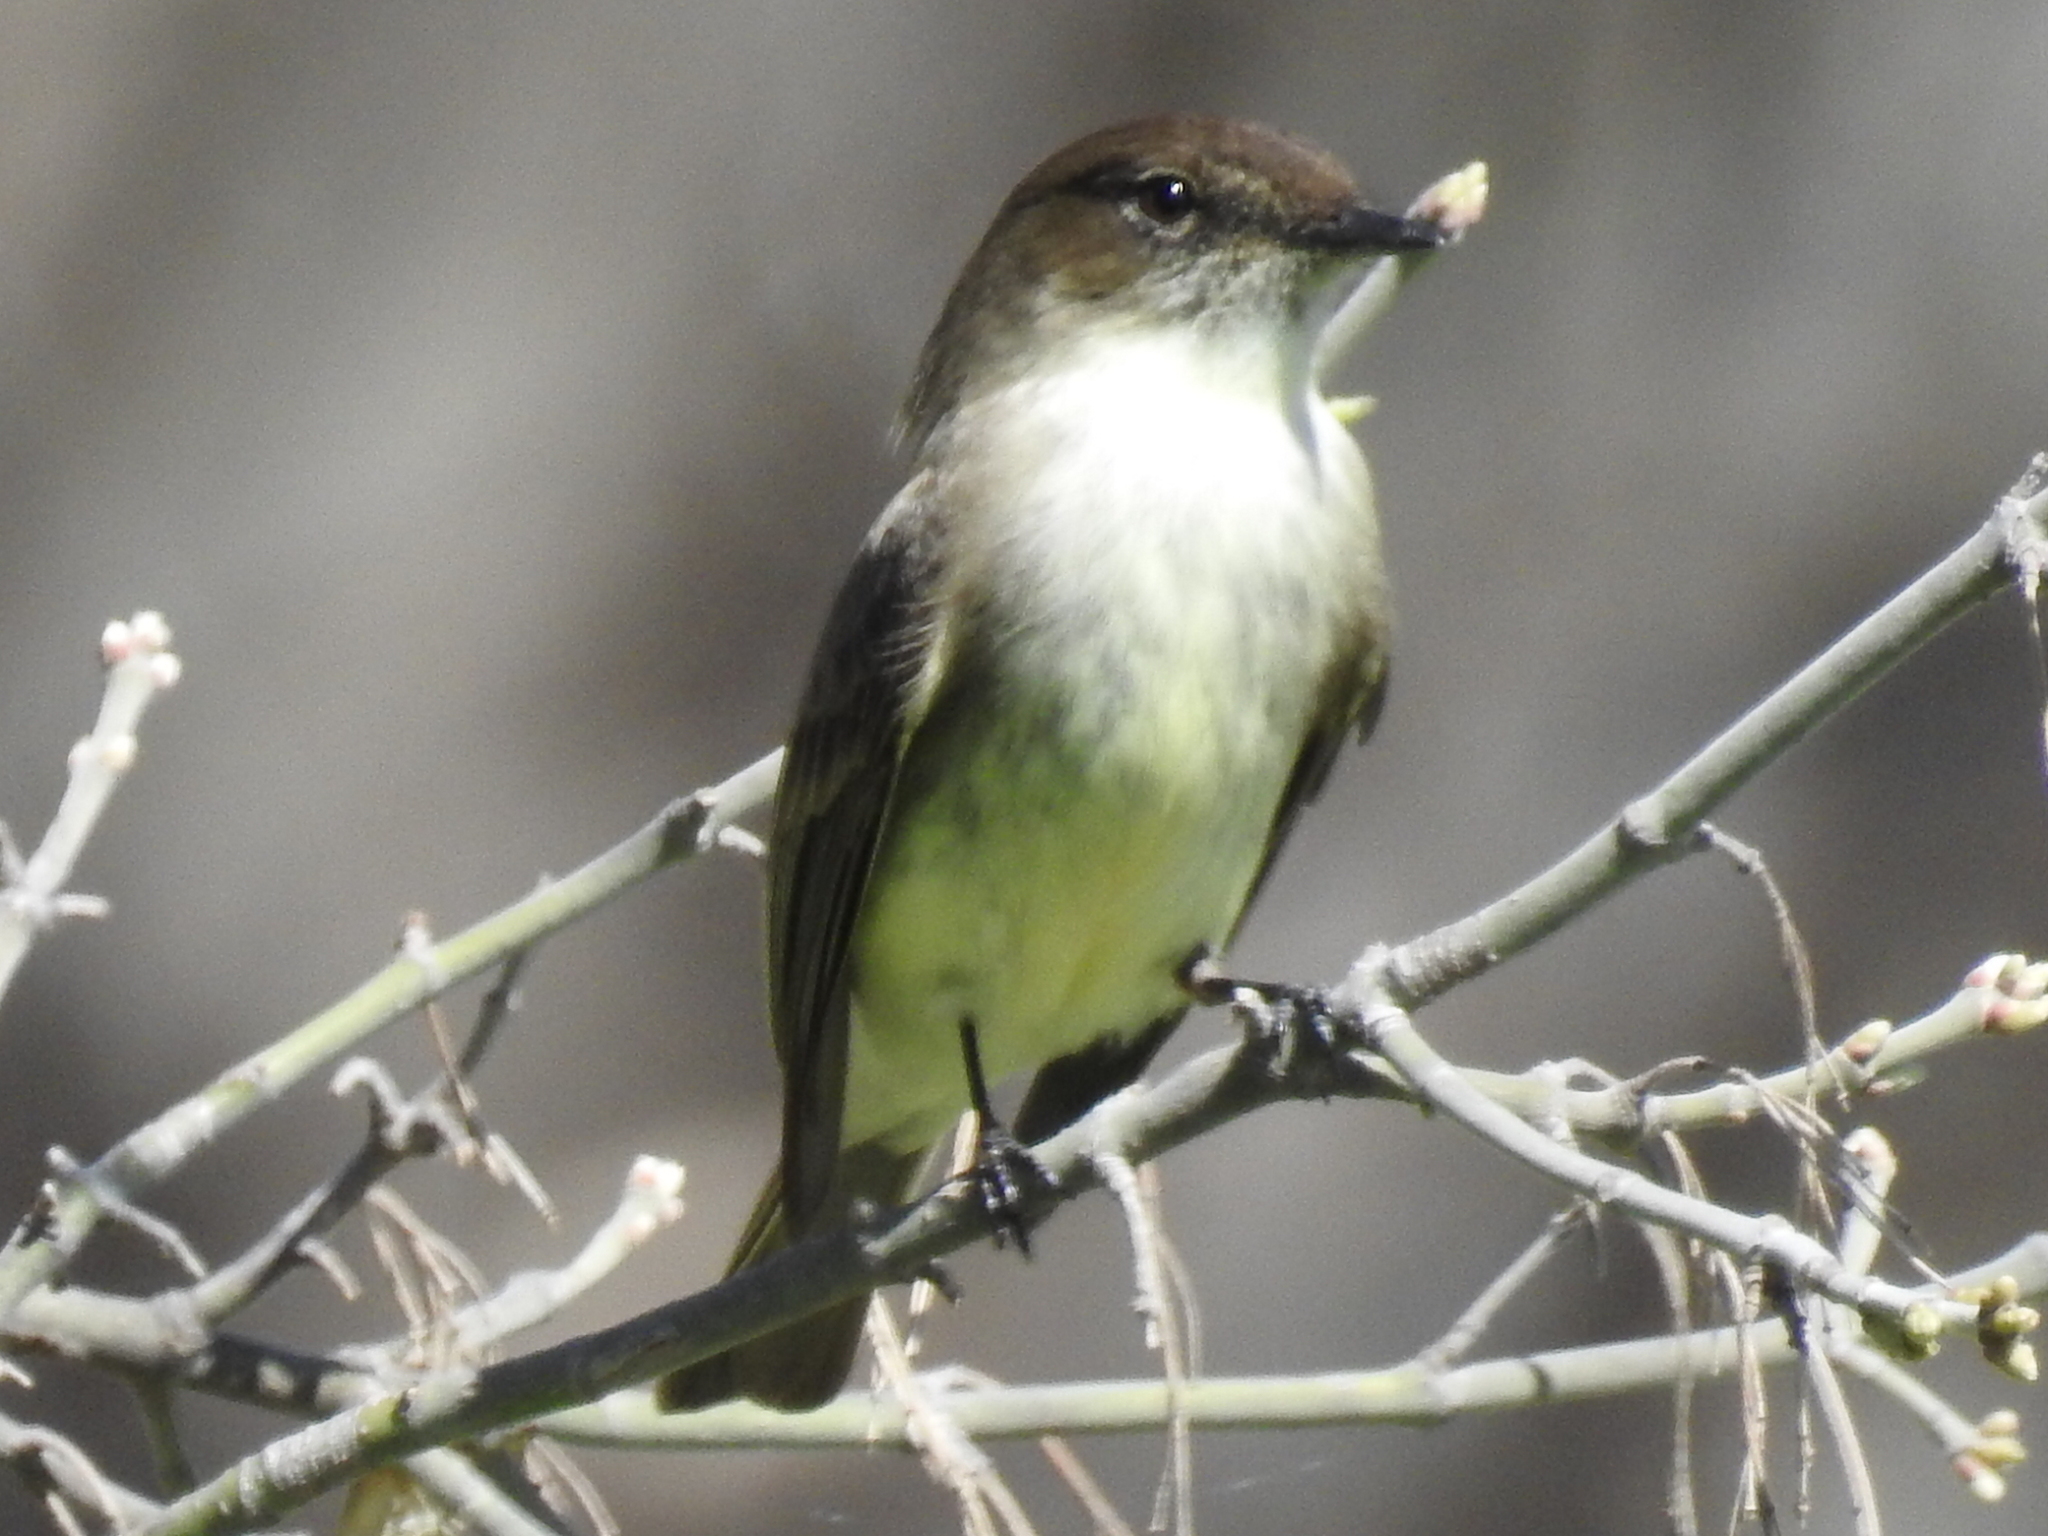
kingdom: Animalia
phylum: Chordata
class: Aves
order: Passeriformes
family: Tyrannidae
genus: Sayornis
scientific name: Sayornis phoebe
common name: Eastern phoebe
